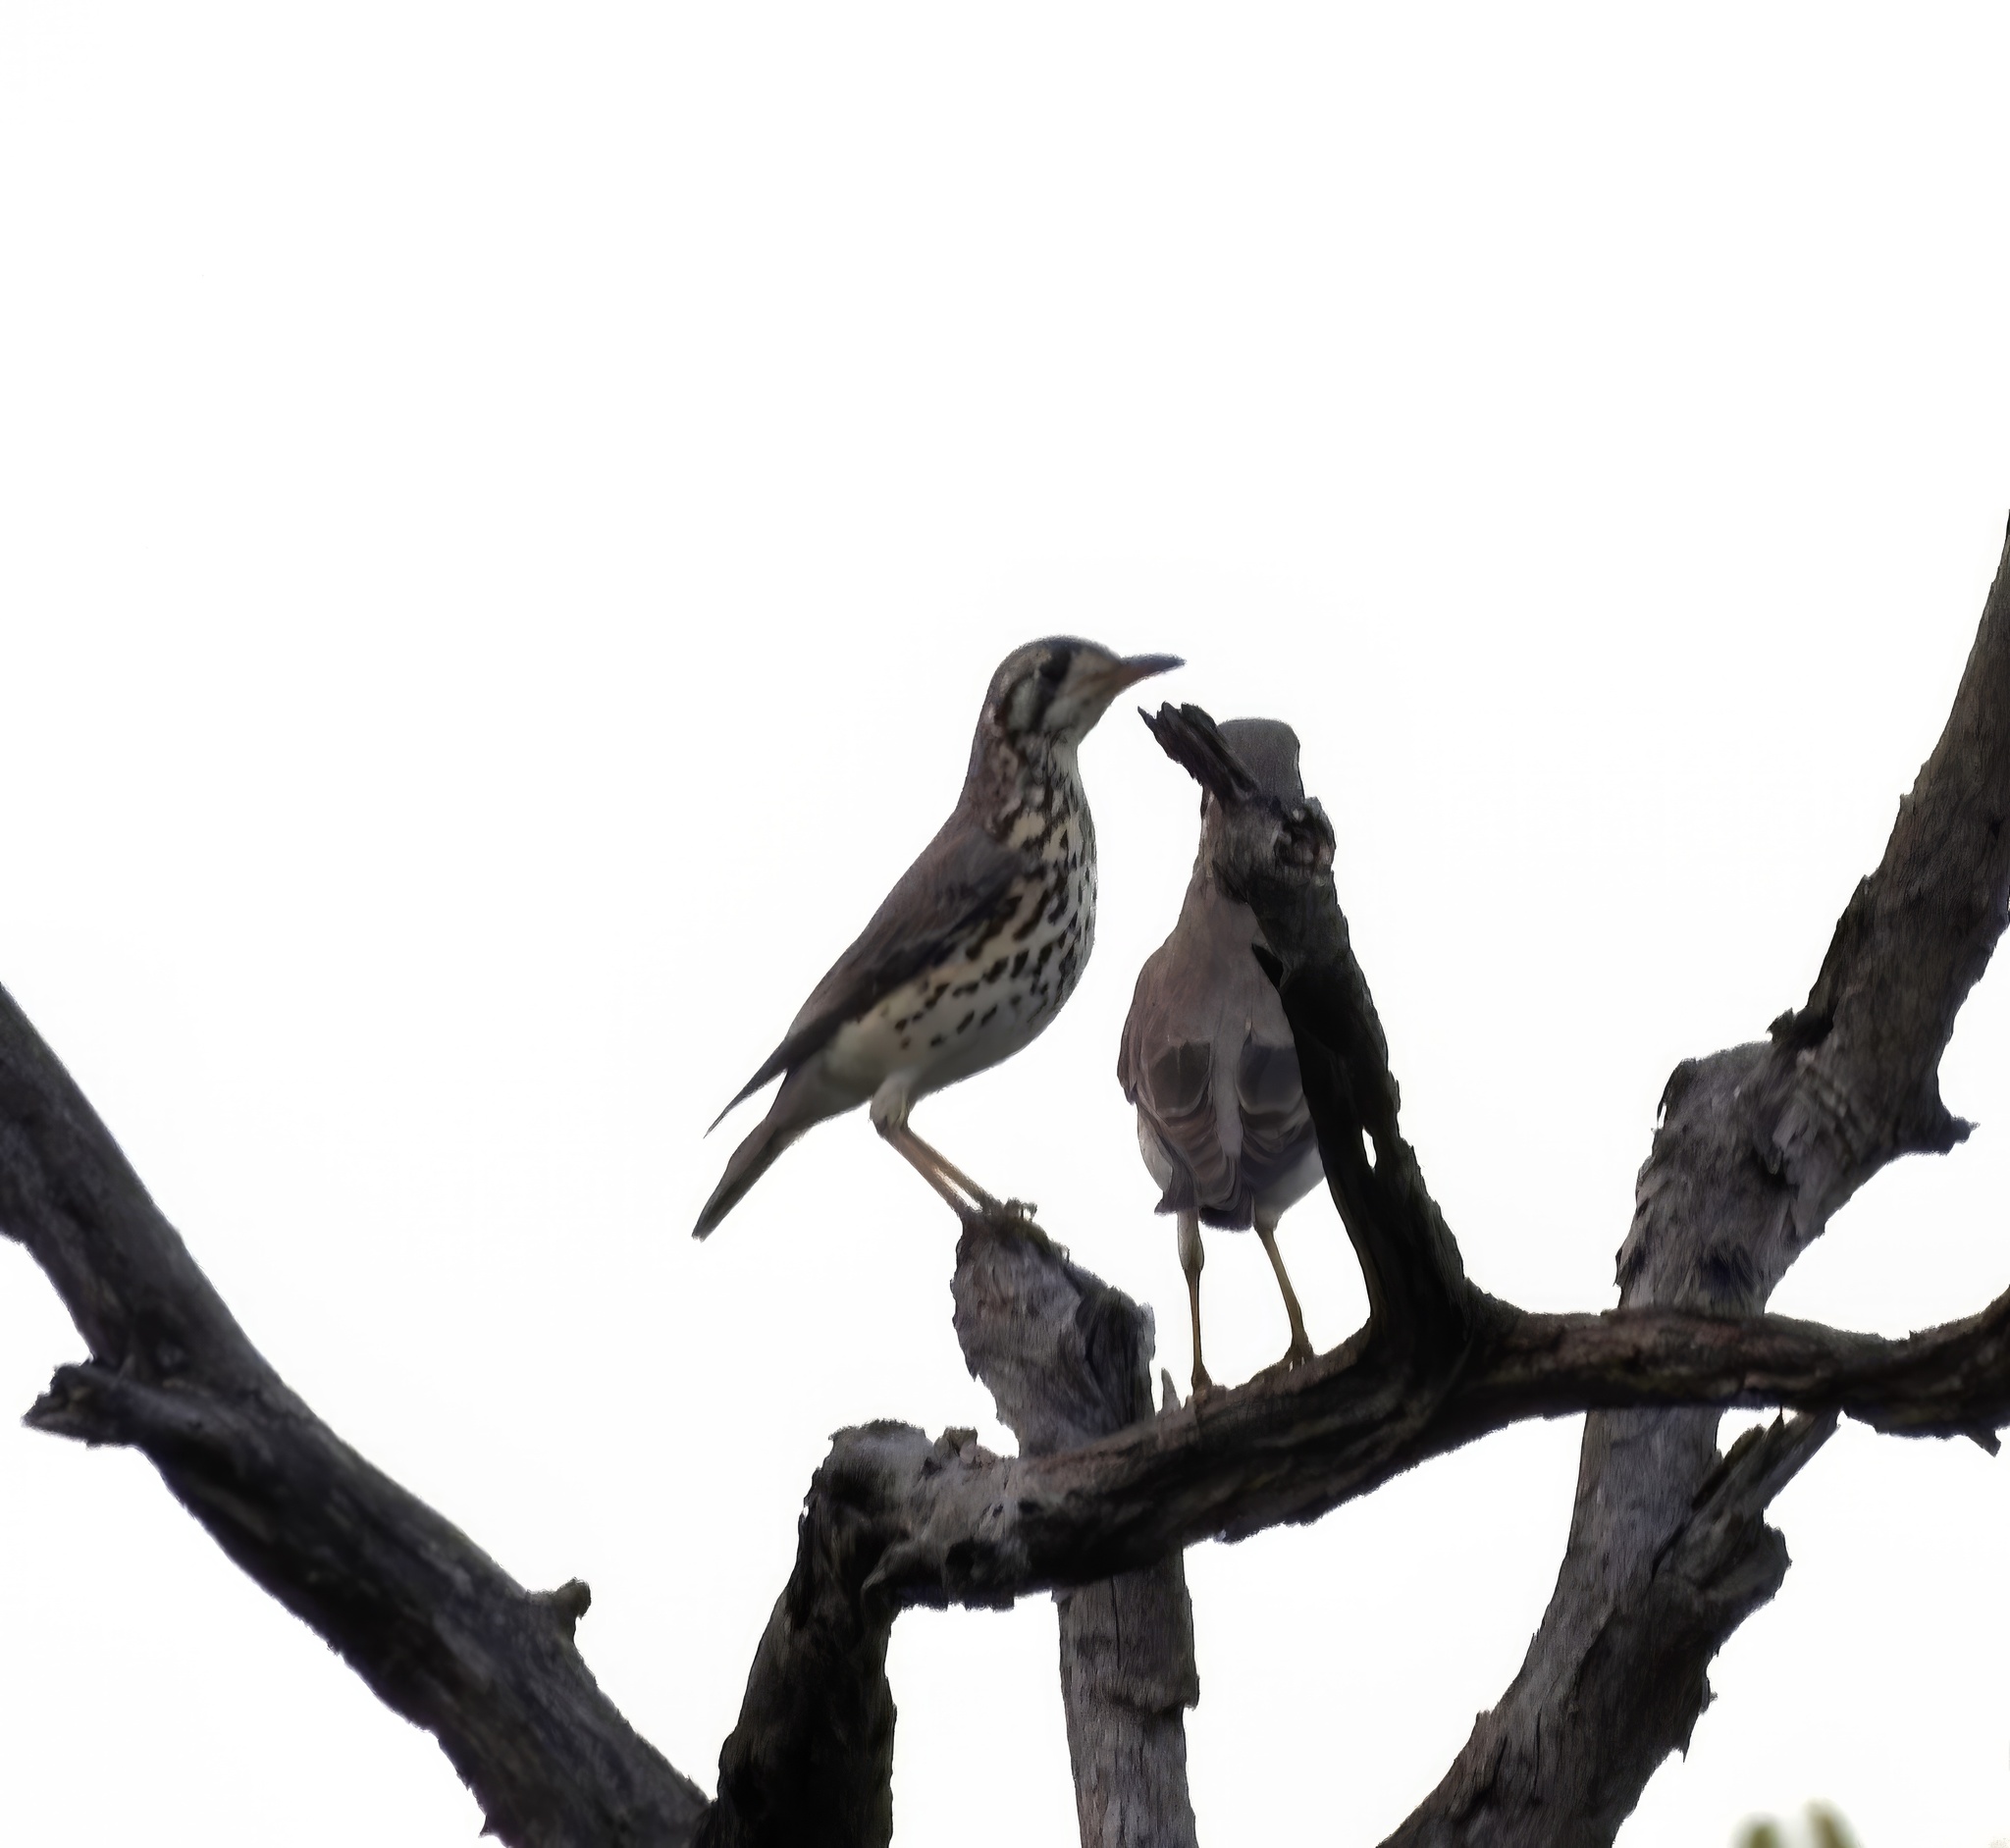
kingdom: Animalia
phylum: Chordata
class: Aves
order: Passeriformes
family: Turdidae
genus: Psophocichla
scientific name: Psophocichla litsitsirupa
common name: Groundscraper thrush
